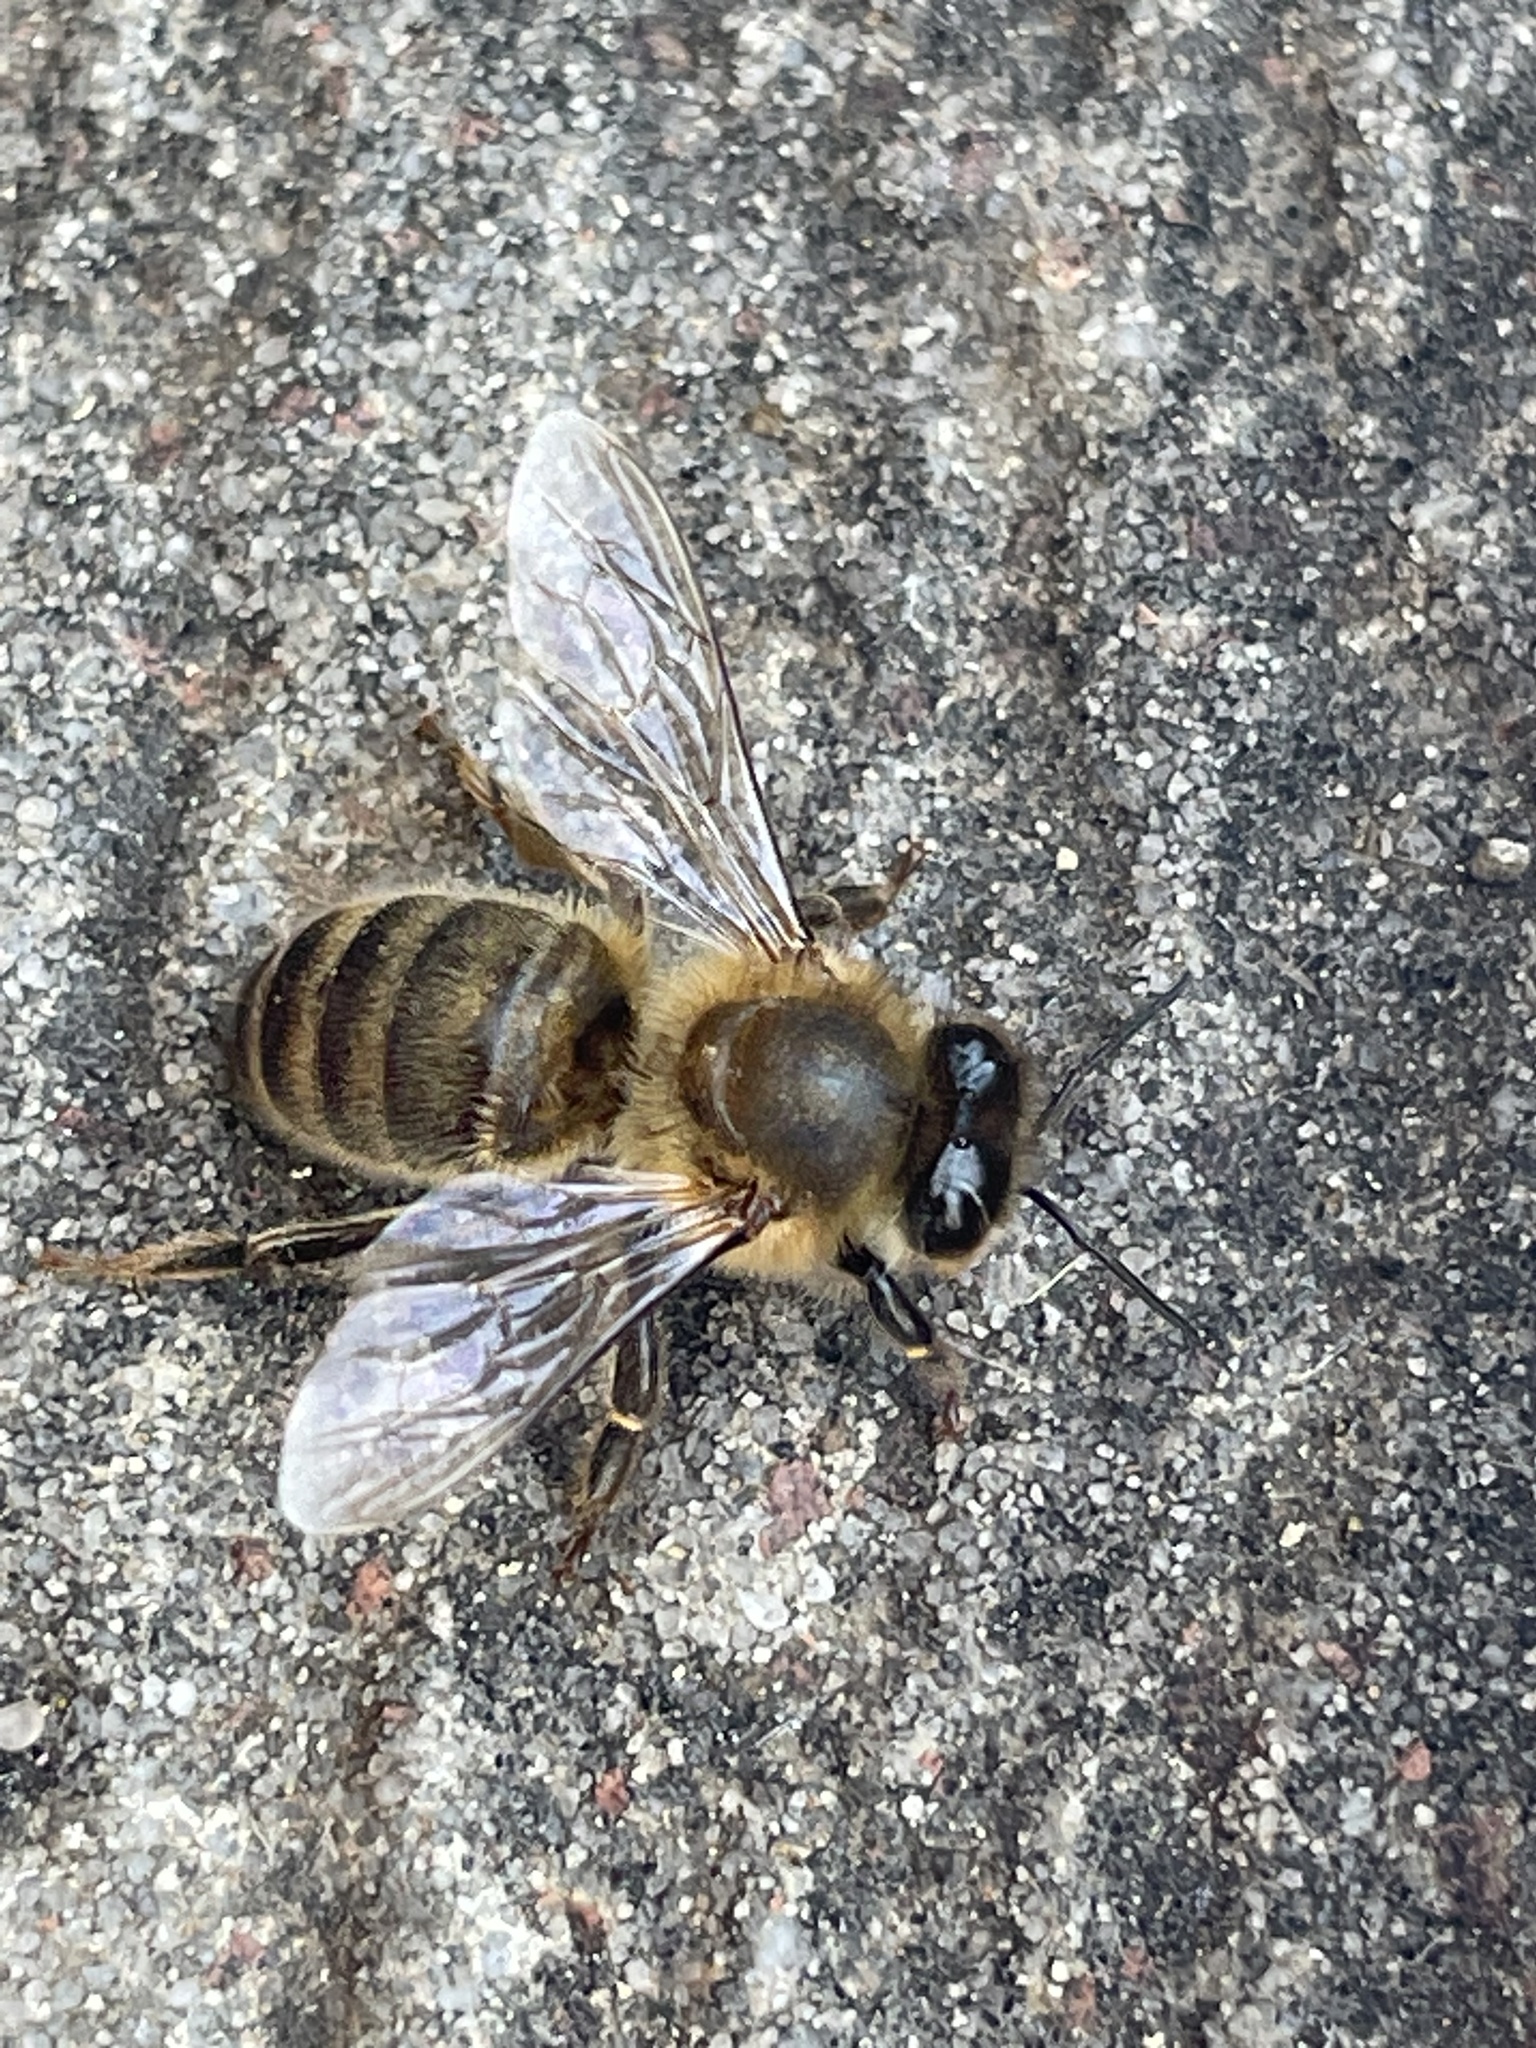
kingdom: Animalia
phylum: Arthropoda
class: Insecta
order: Hymenoptera
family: Apidae
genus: Apis
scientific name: Apis mellifera
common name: Honey bee
